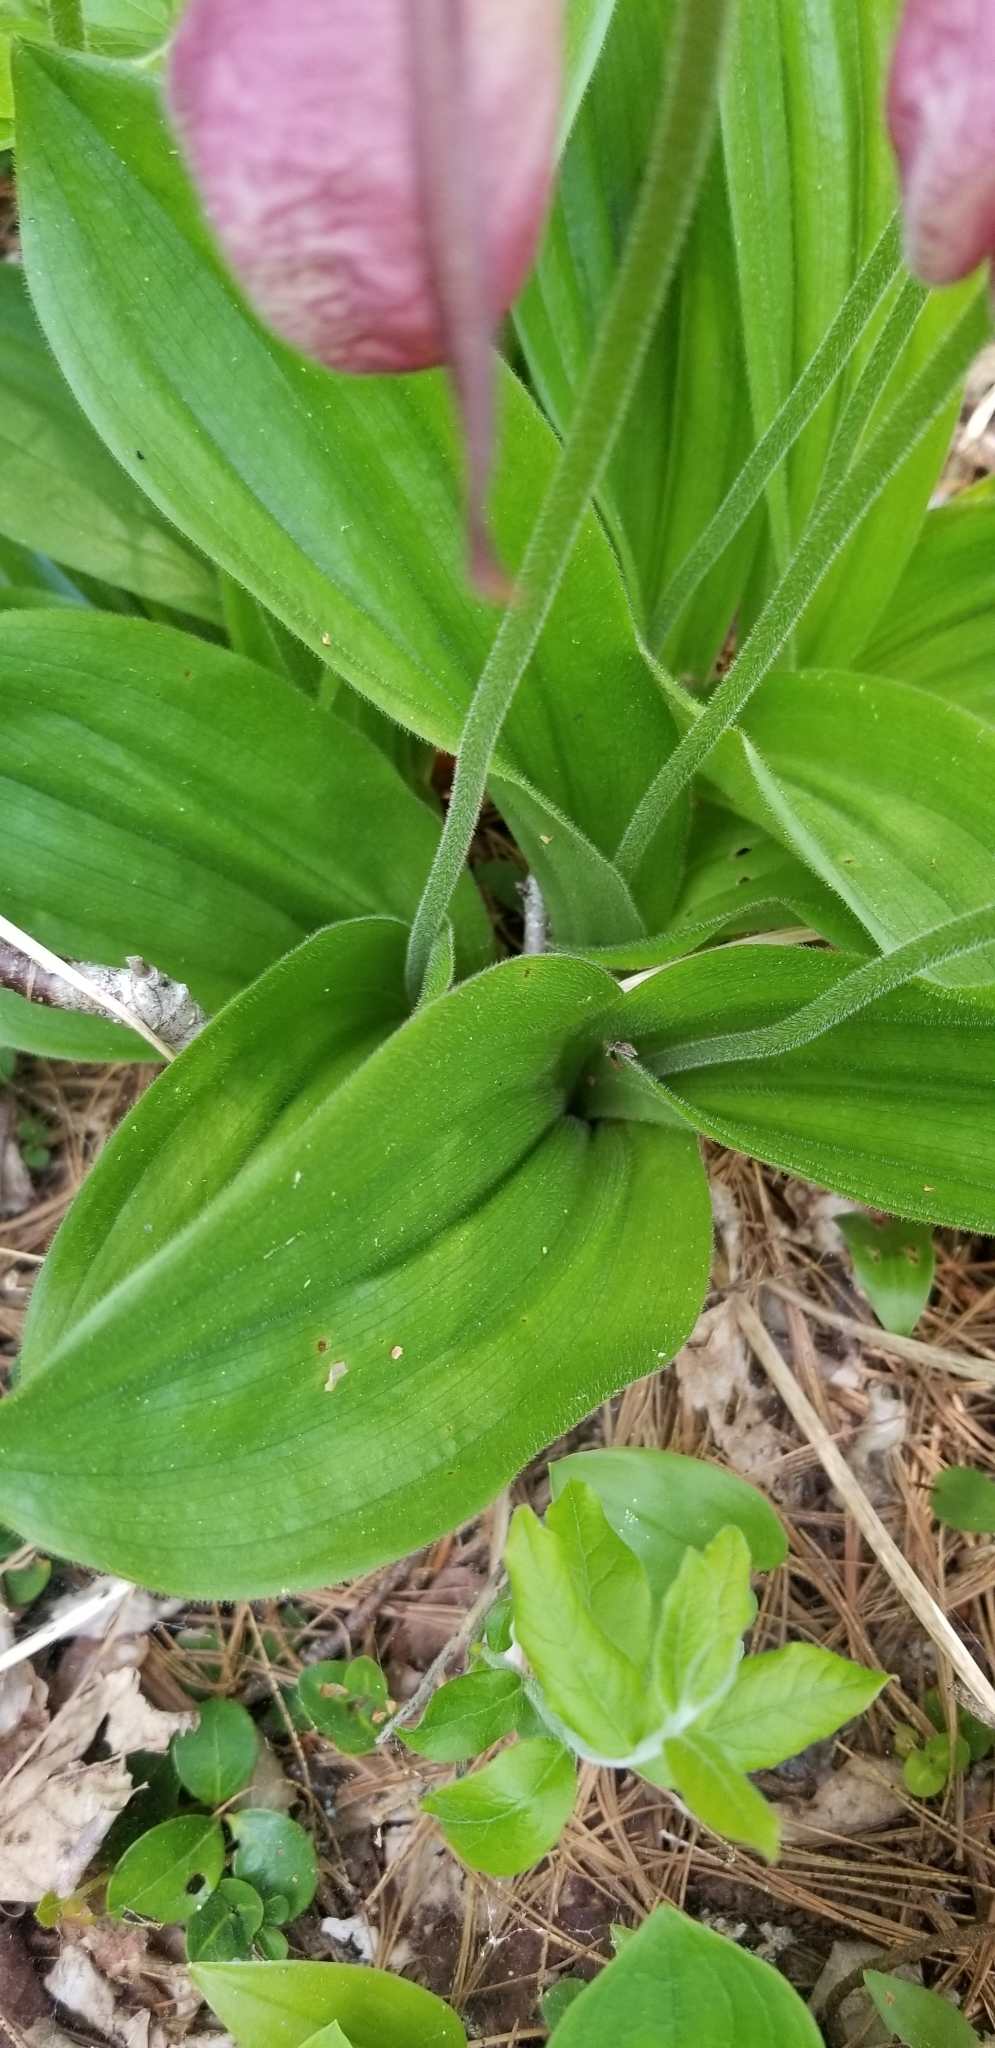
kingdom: Plantae
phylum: Tracheophyta
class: Liliopsida
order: Asparagales
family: Orchidaceae
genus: Cypripedium
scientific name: Cypripedium acaule
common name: Pink lady's-slipper
